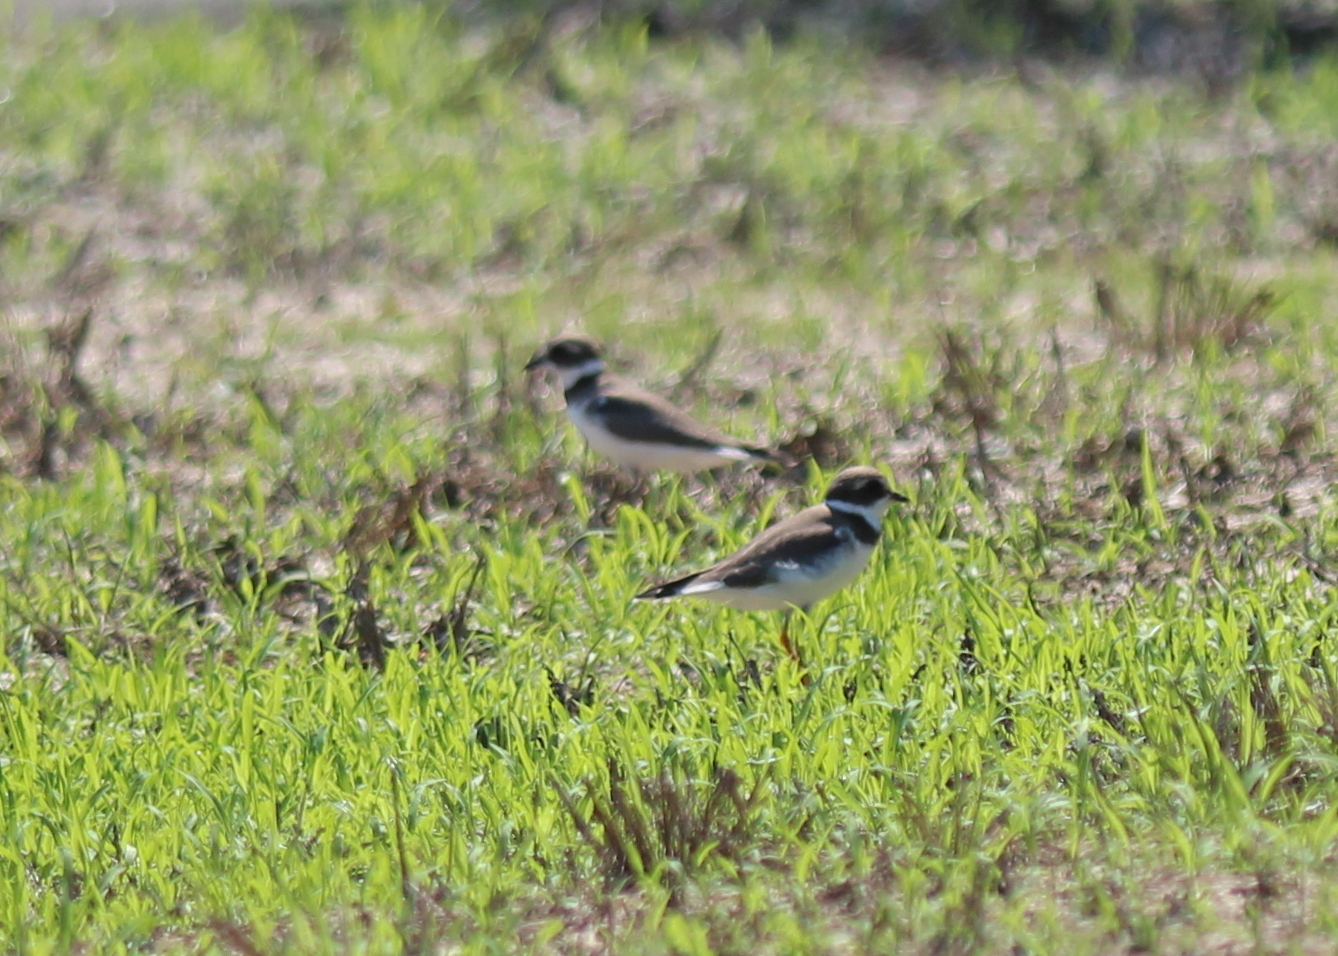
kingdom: Animalia
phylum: Chordata
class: Aves
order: Charadriiformes
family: Charadriidae
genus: Charadrius
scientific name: Charadrius semipalmatus
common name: Semipalmated plover
